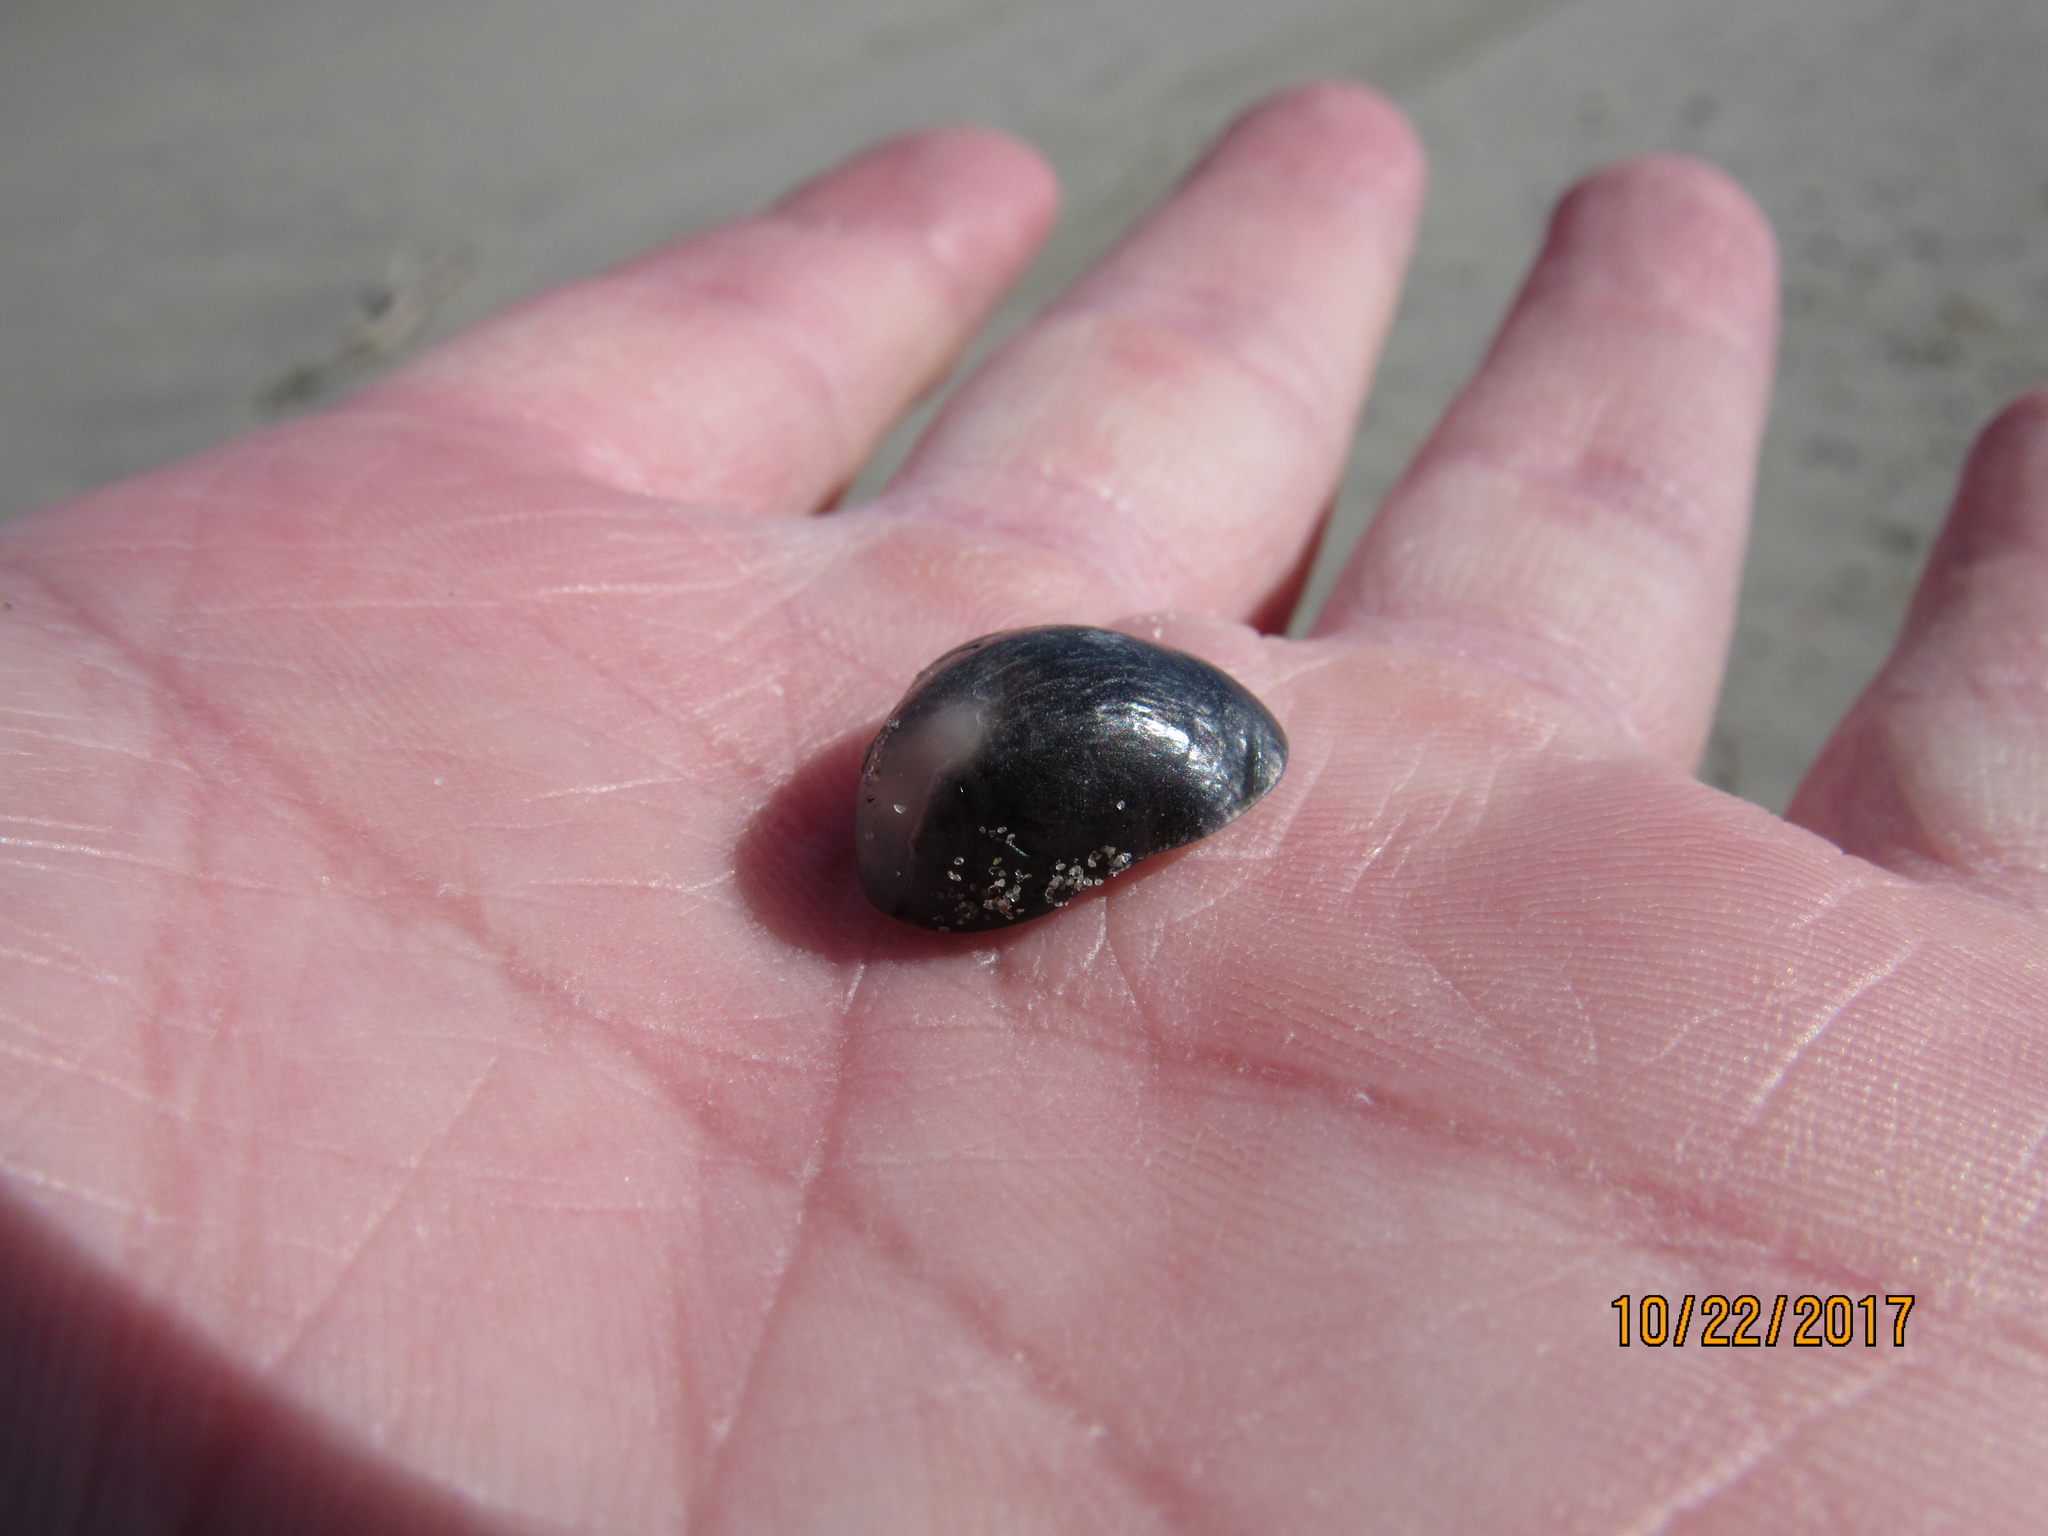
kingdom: Animalia
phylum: Mollusca
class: Bivalvia
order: Pectinida
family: Anomiidae
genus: Anomia
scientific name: Anomia simplex
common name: Common jingle shell
